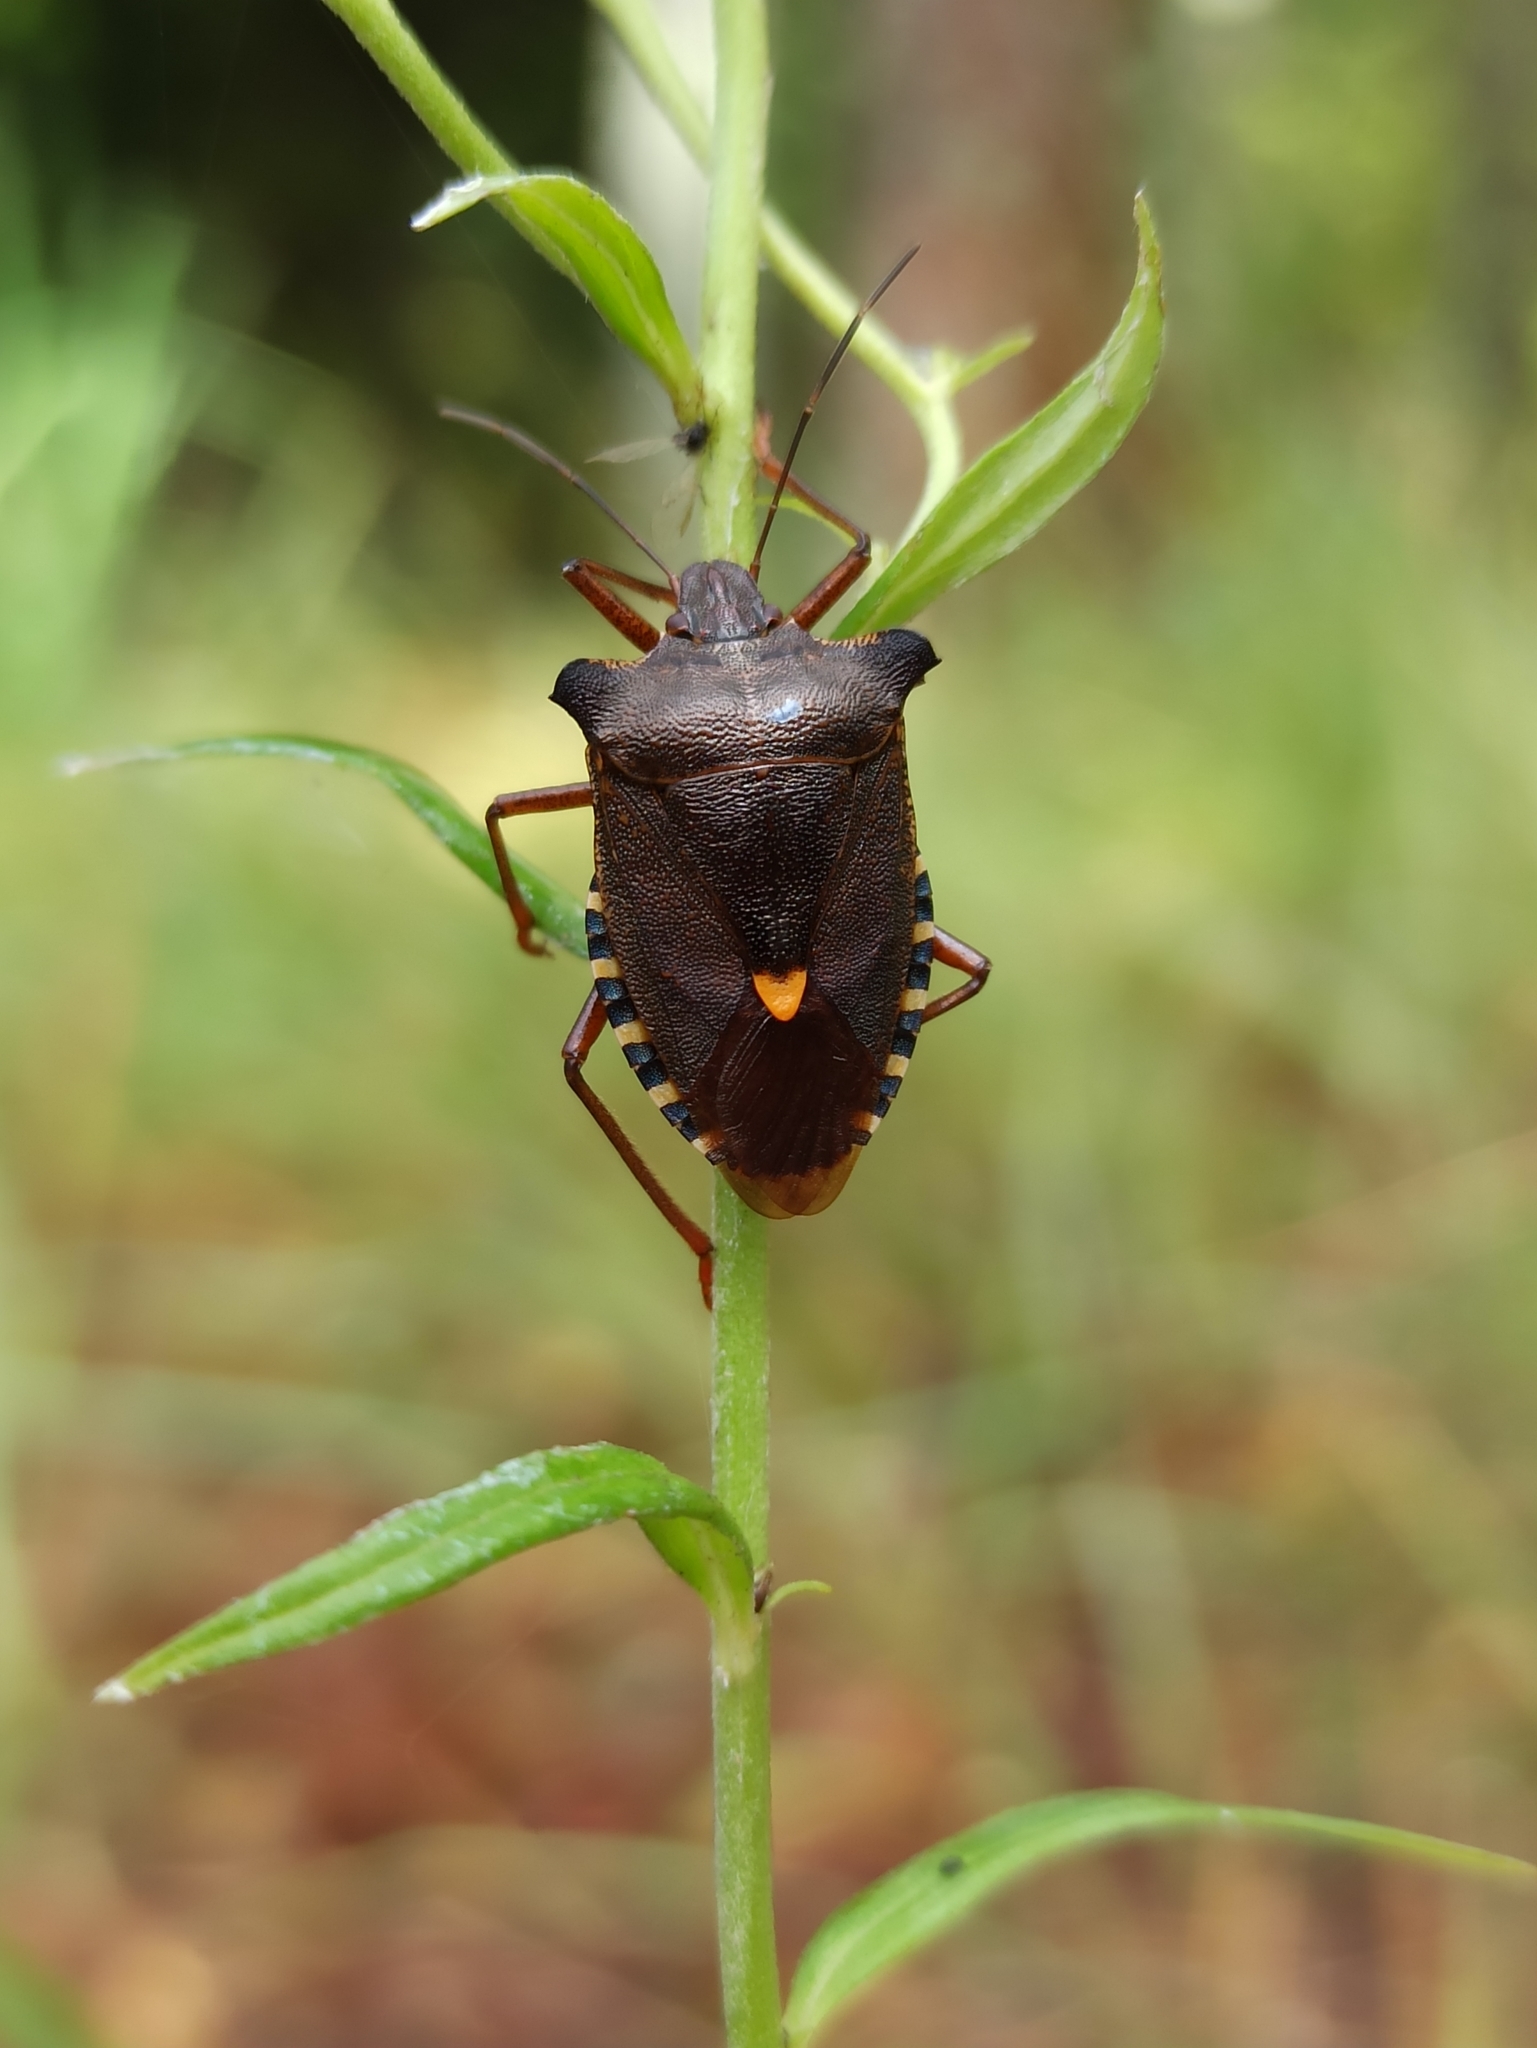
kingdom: Animalia
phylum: Arthropoda
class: Insecta
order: Hemiptera
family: Pentatomidae
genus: Pentatoma
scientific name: Pentatoma rufipes
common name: Forest bug
